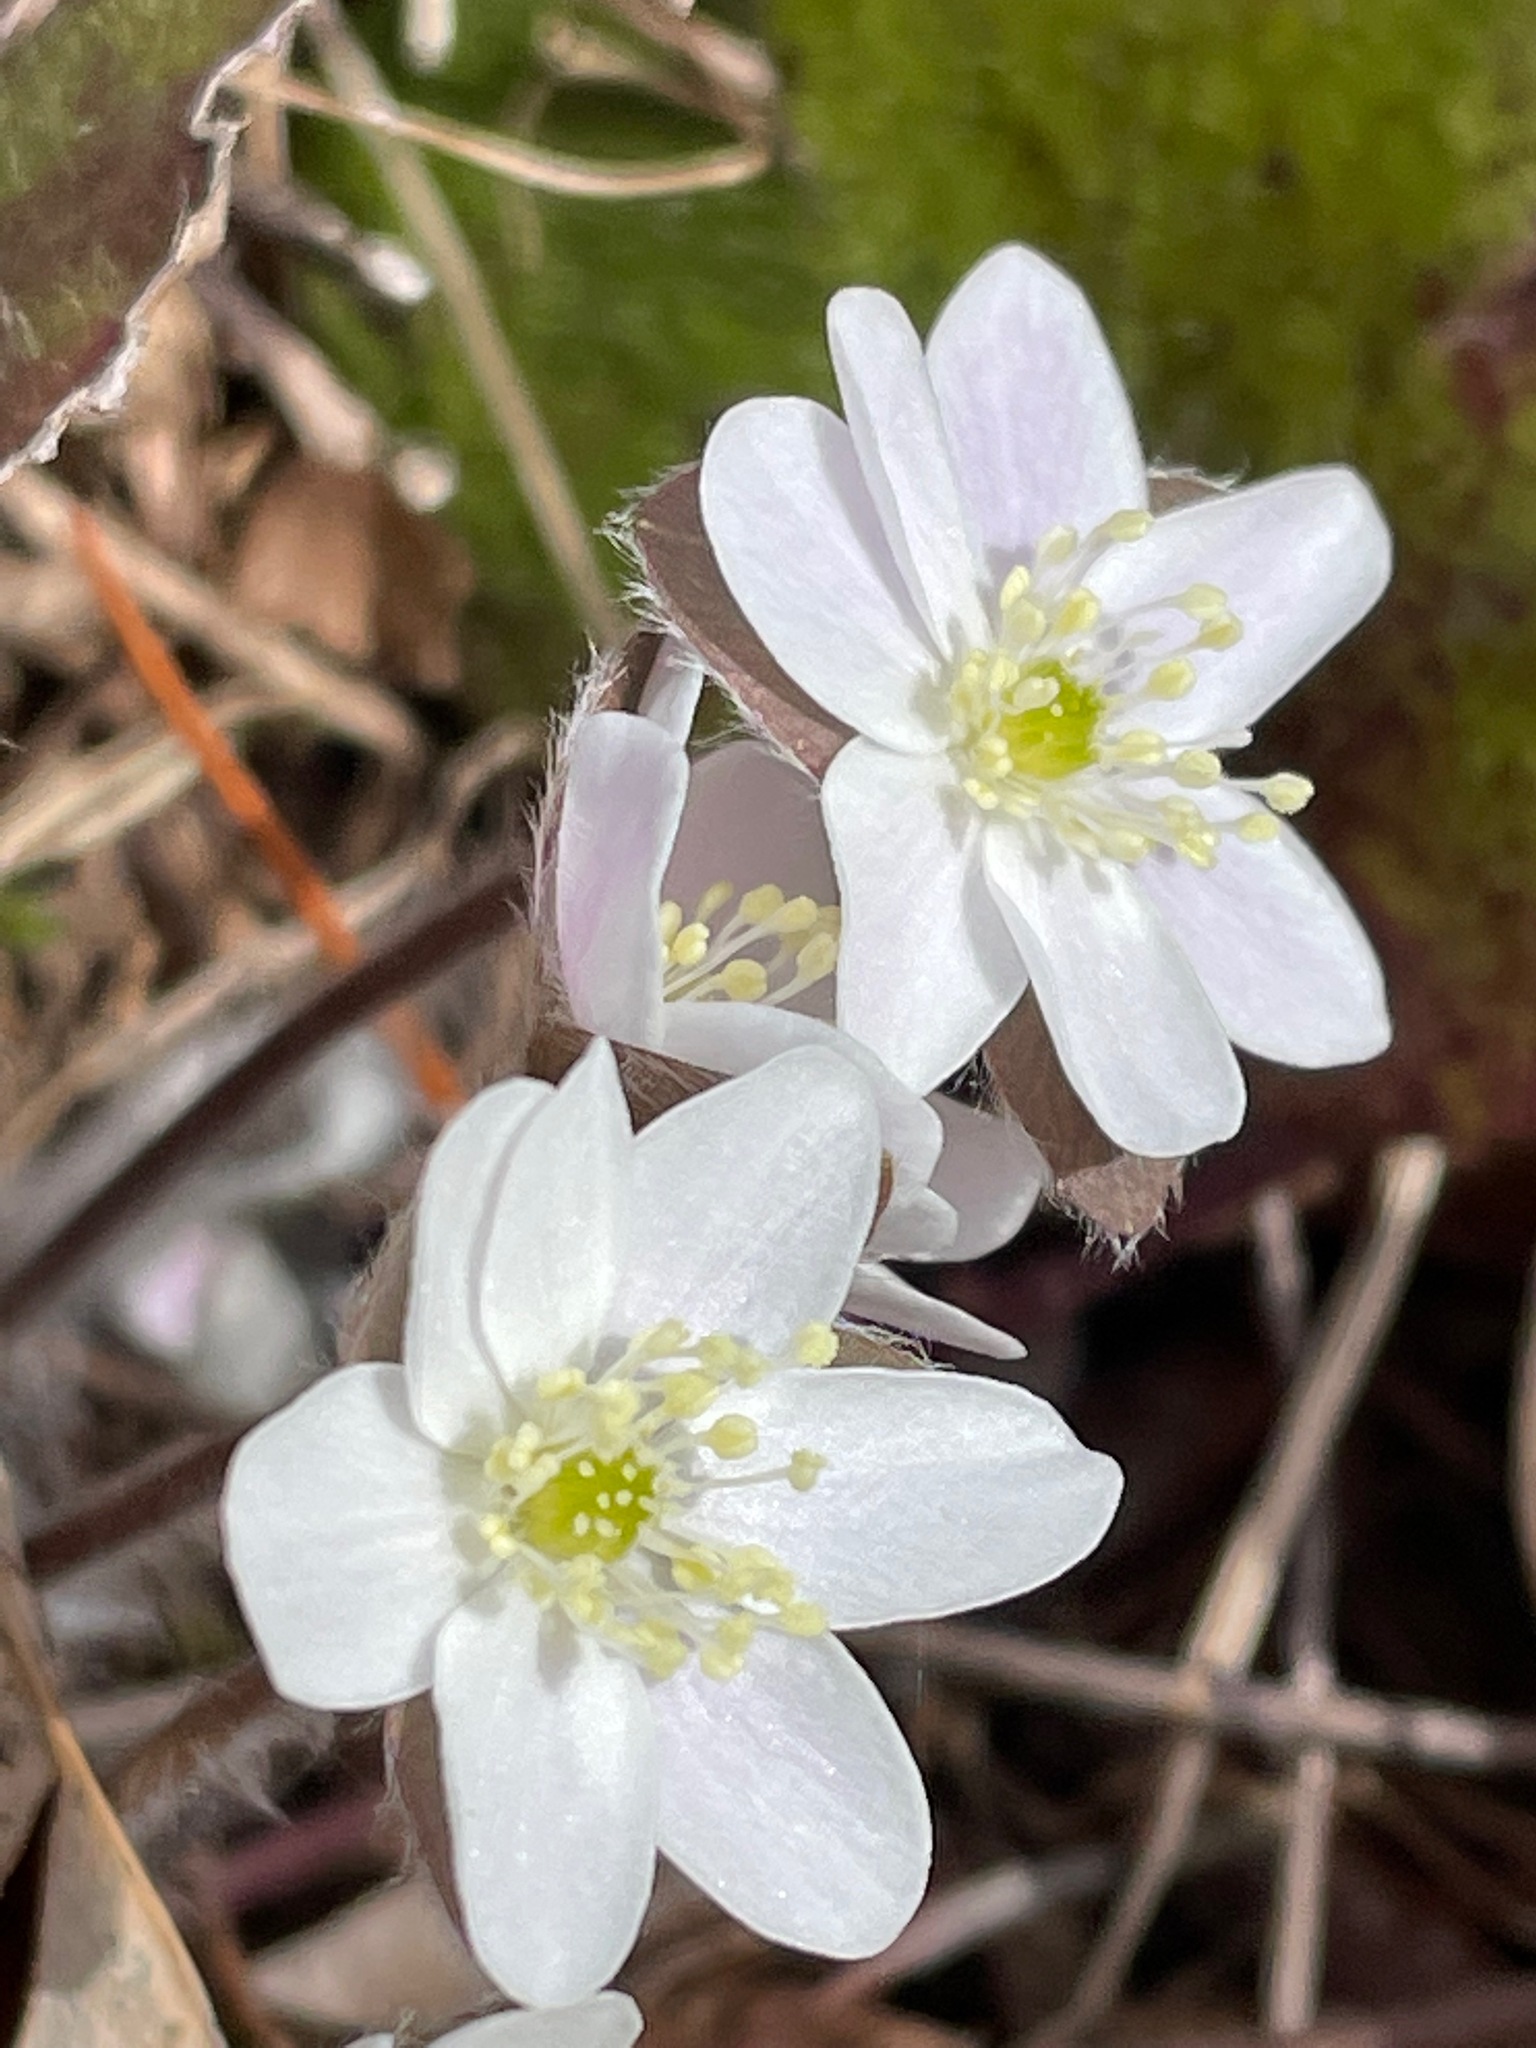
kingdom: Plantae
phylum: Tracheophyta
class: Magnoliopsida
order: Ranunculales
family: Ranunculaceae
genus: Hepatica
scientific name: Hepatica americana
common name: American hepatica
